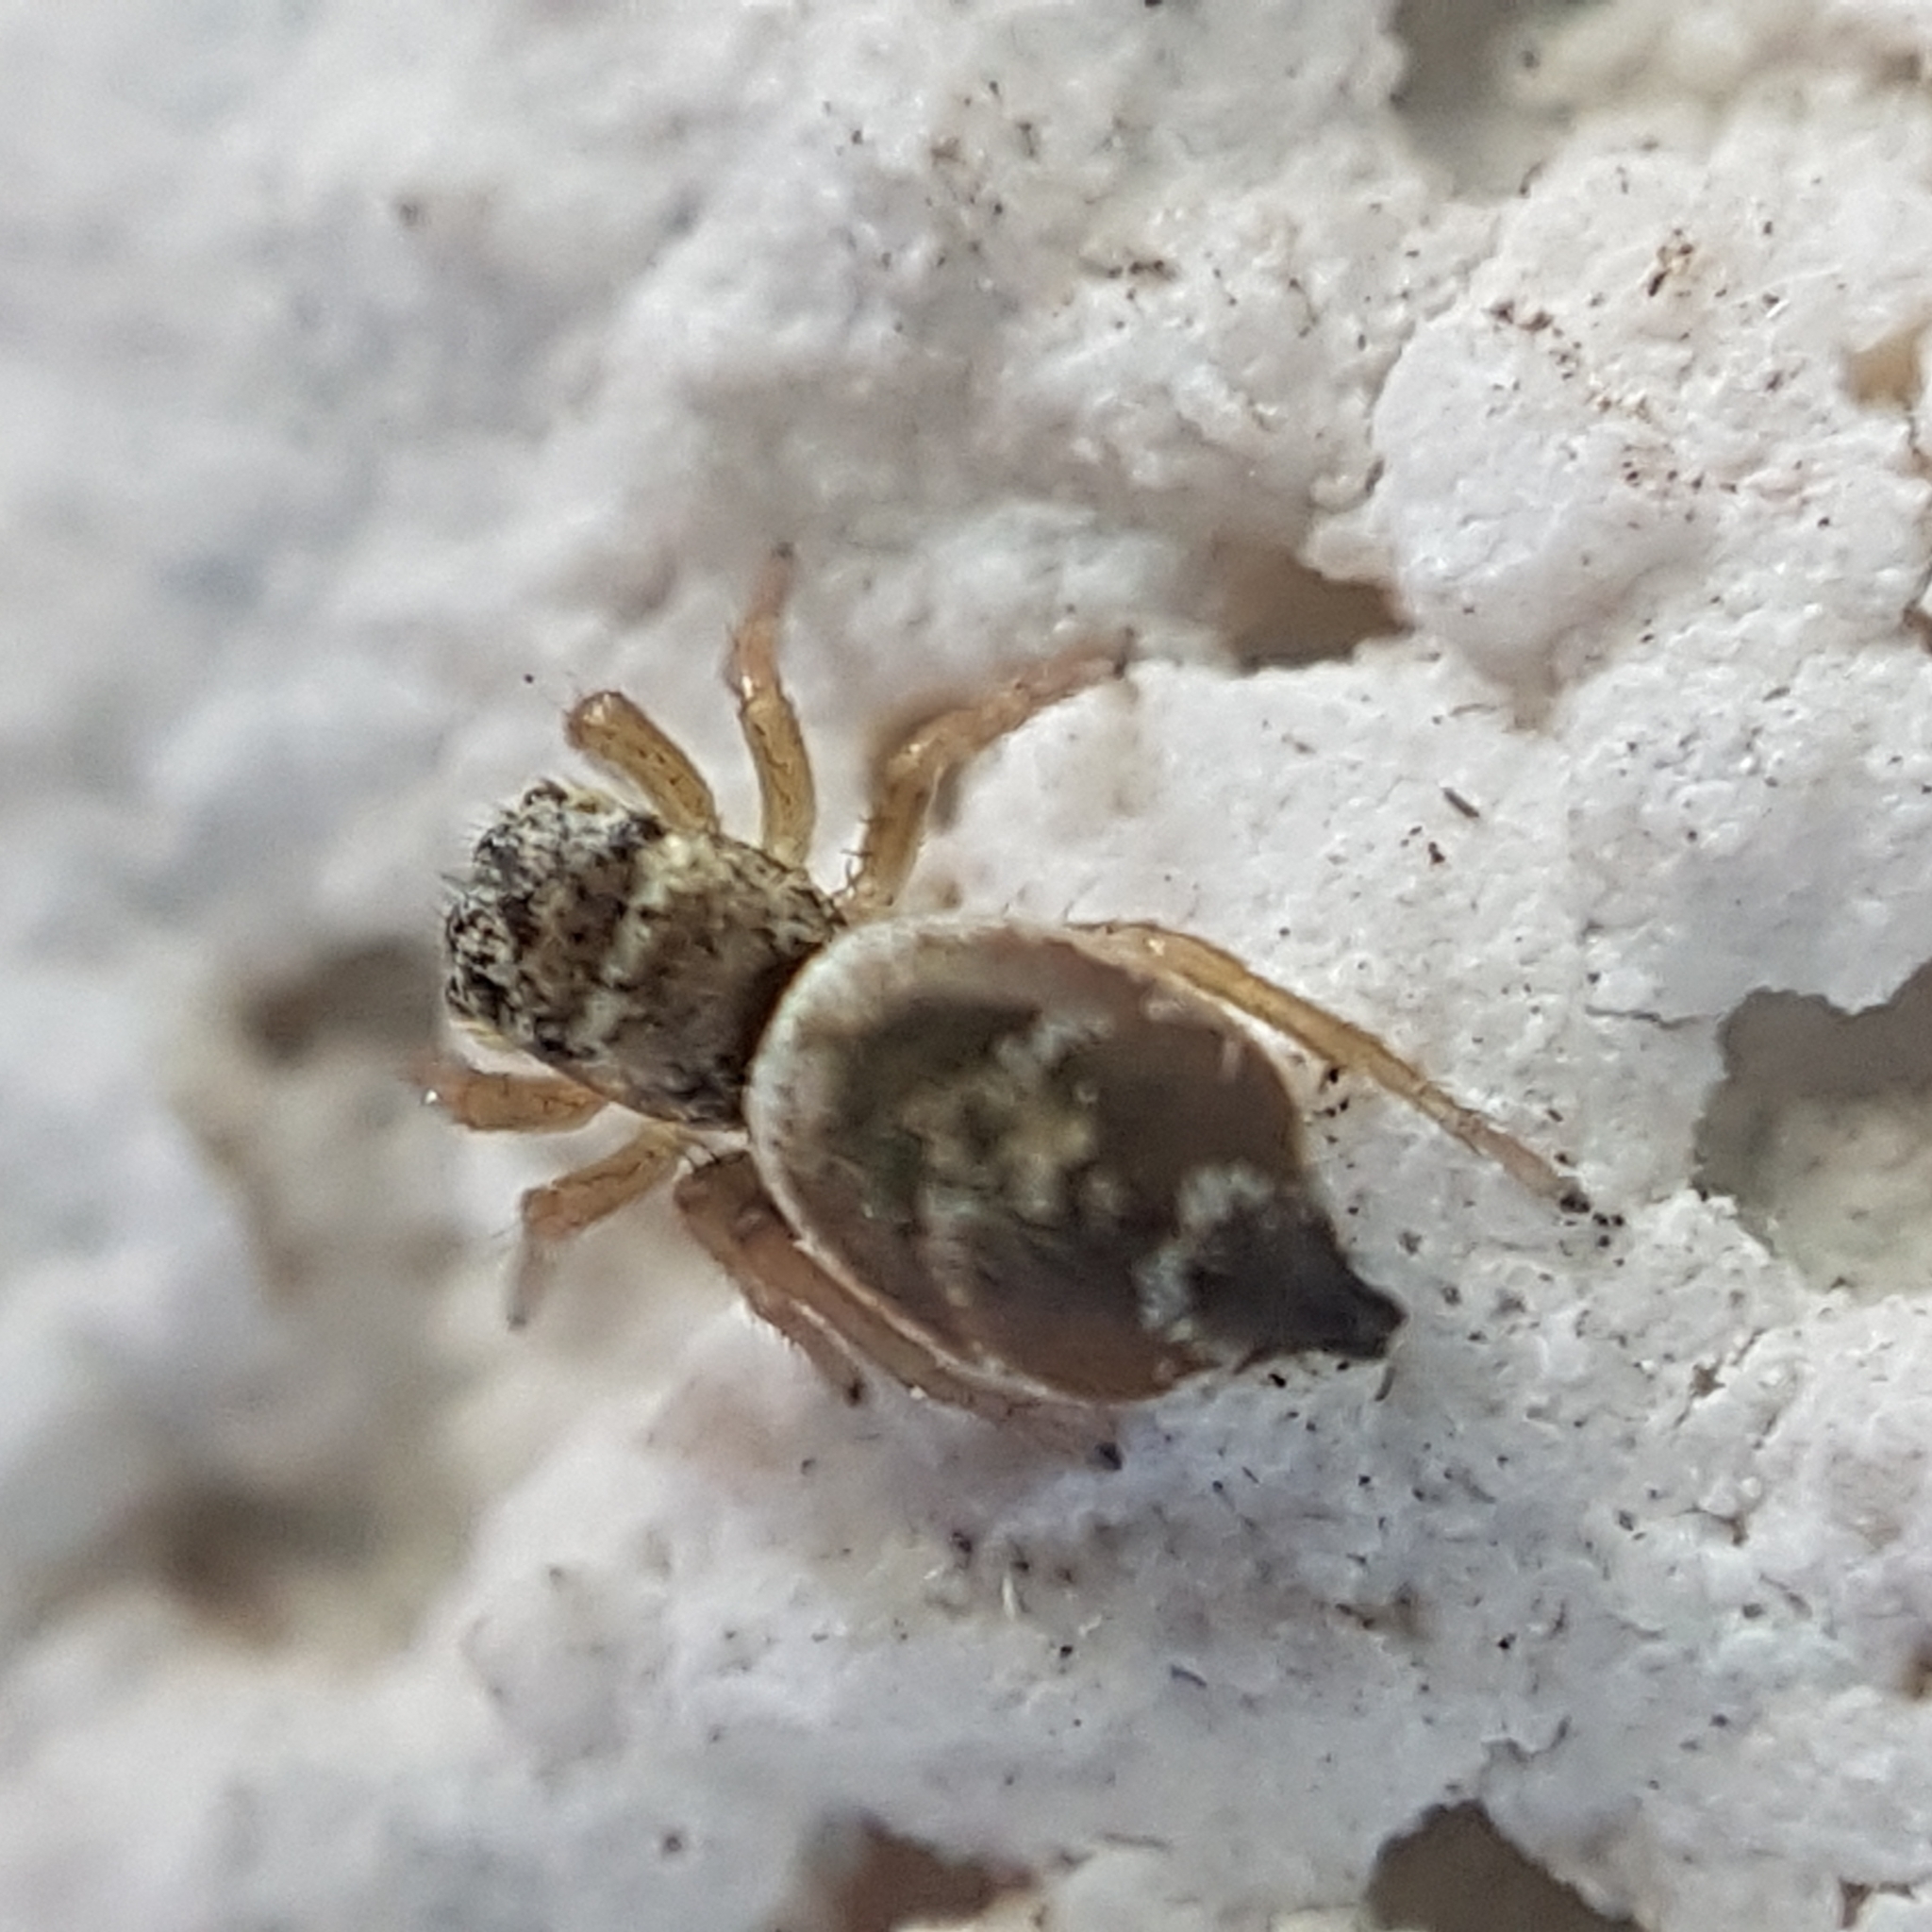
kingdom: Animalia
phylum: Arthropoda
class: Arachnida
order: Araneae
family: Salticidae
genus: Heliophanus
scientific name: Heliophanus tribulosus
